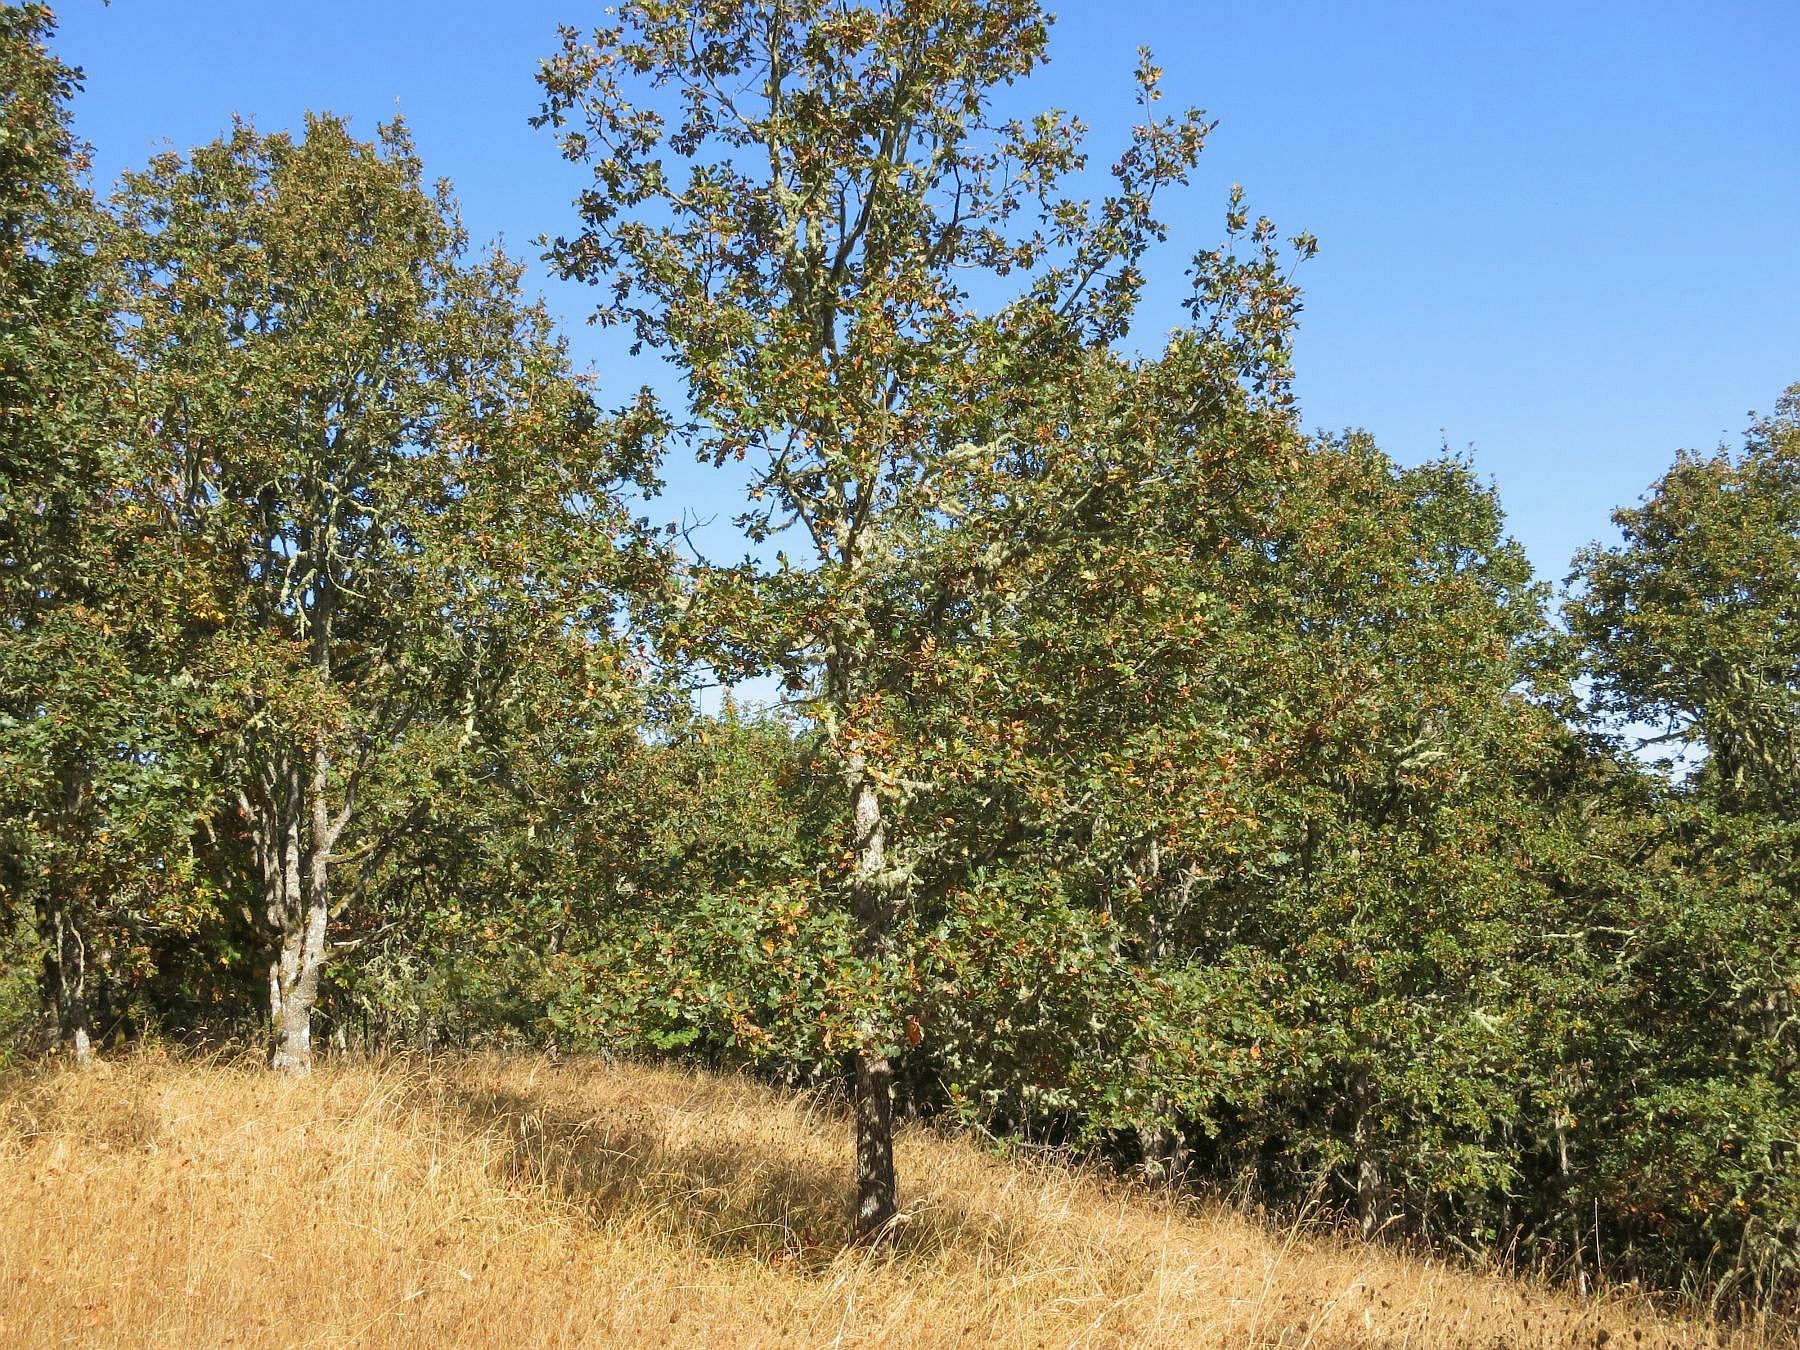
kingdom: Plantae
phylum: Tracheophyta
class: Magnoliopsida
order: Fagales
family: Fagaceae
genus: Quercus
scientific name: Quercus garryana
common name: Garry oak
